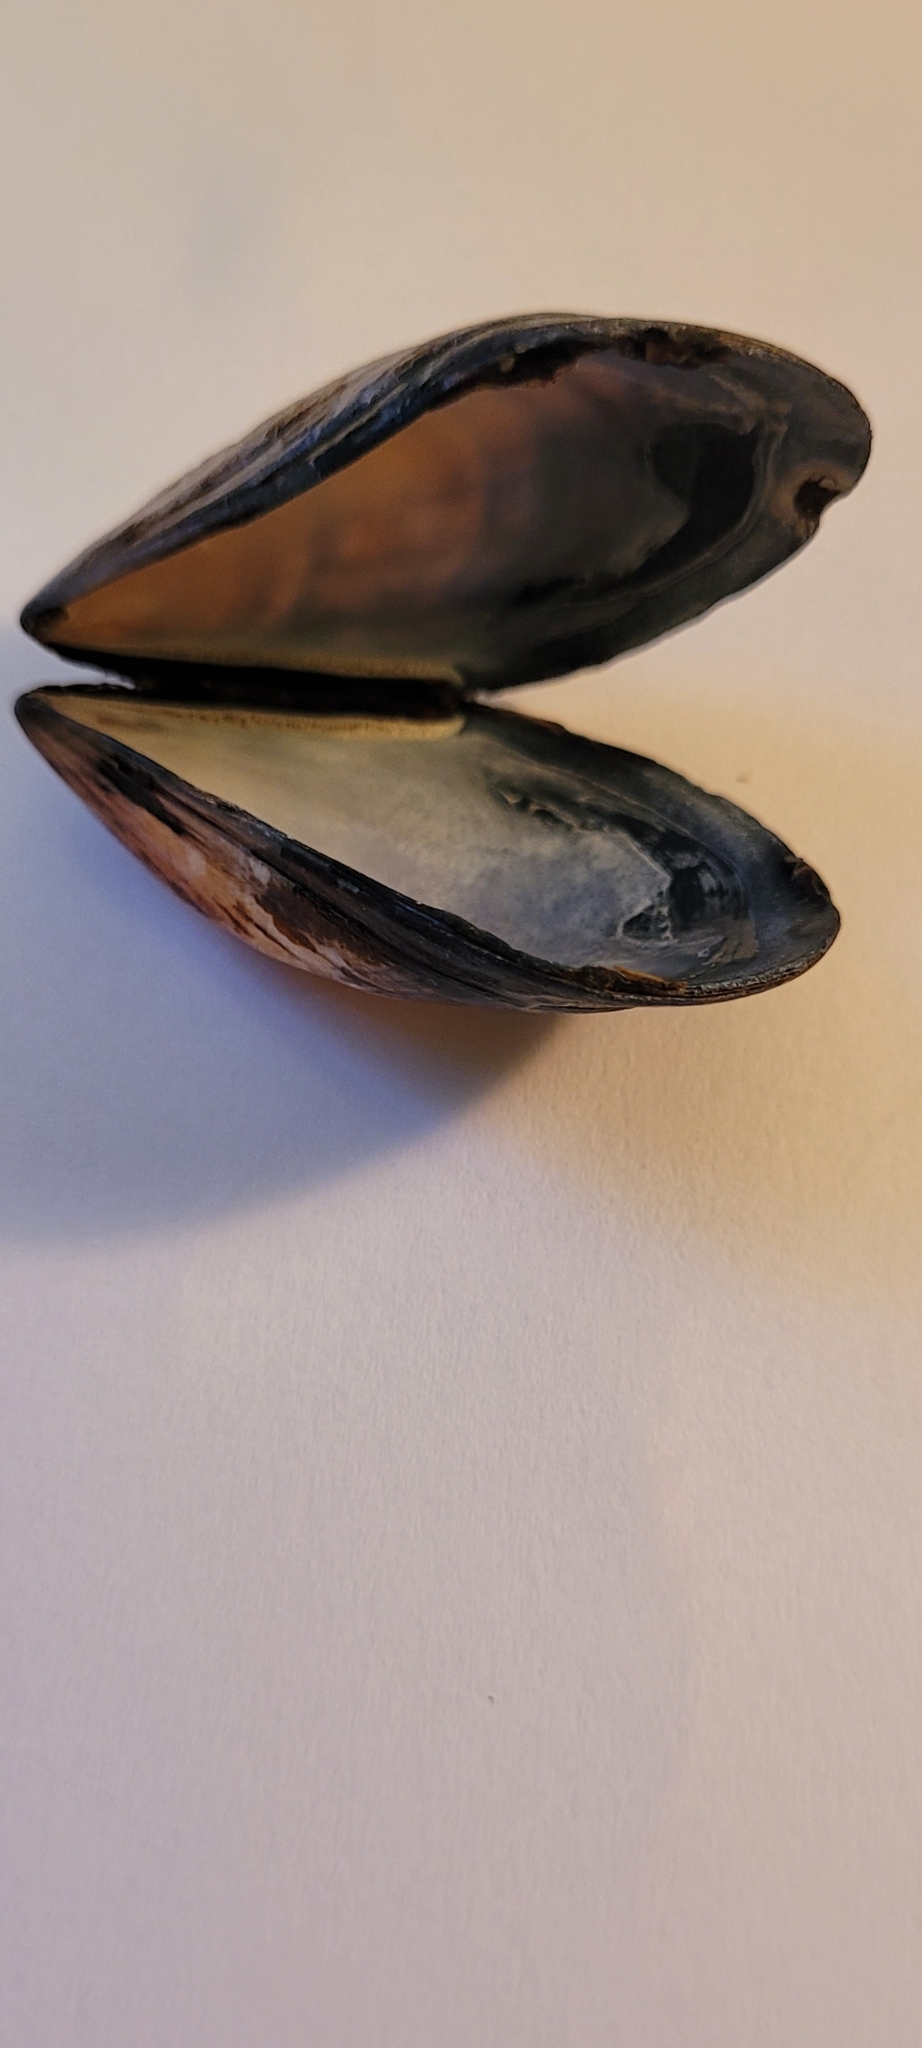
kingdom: Animalia
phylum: Mollusca
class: Bivalvia
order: Mytilida
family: Mytilidae
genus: Mytilus
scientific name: Mytilus edulis
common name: Blue mussel
